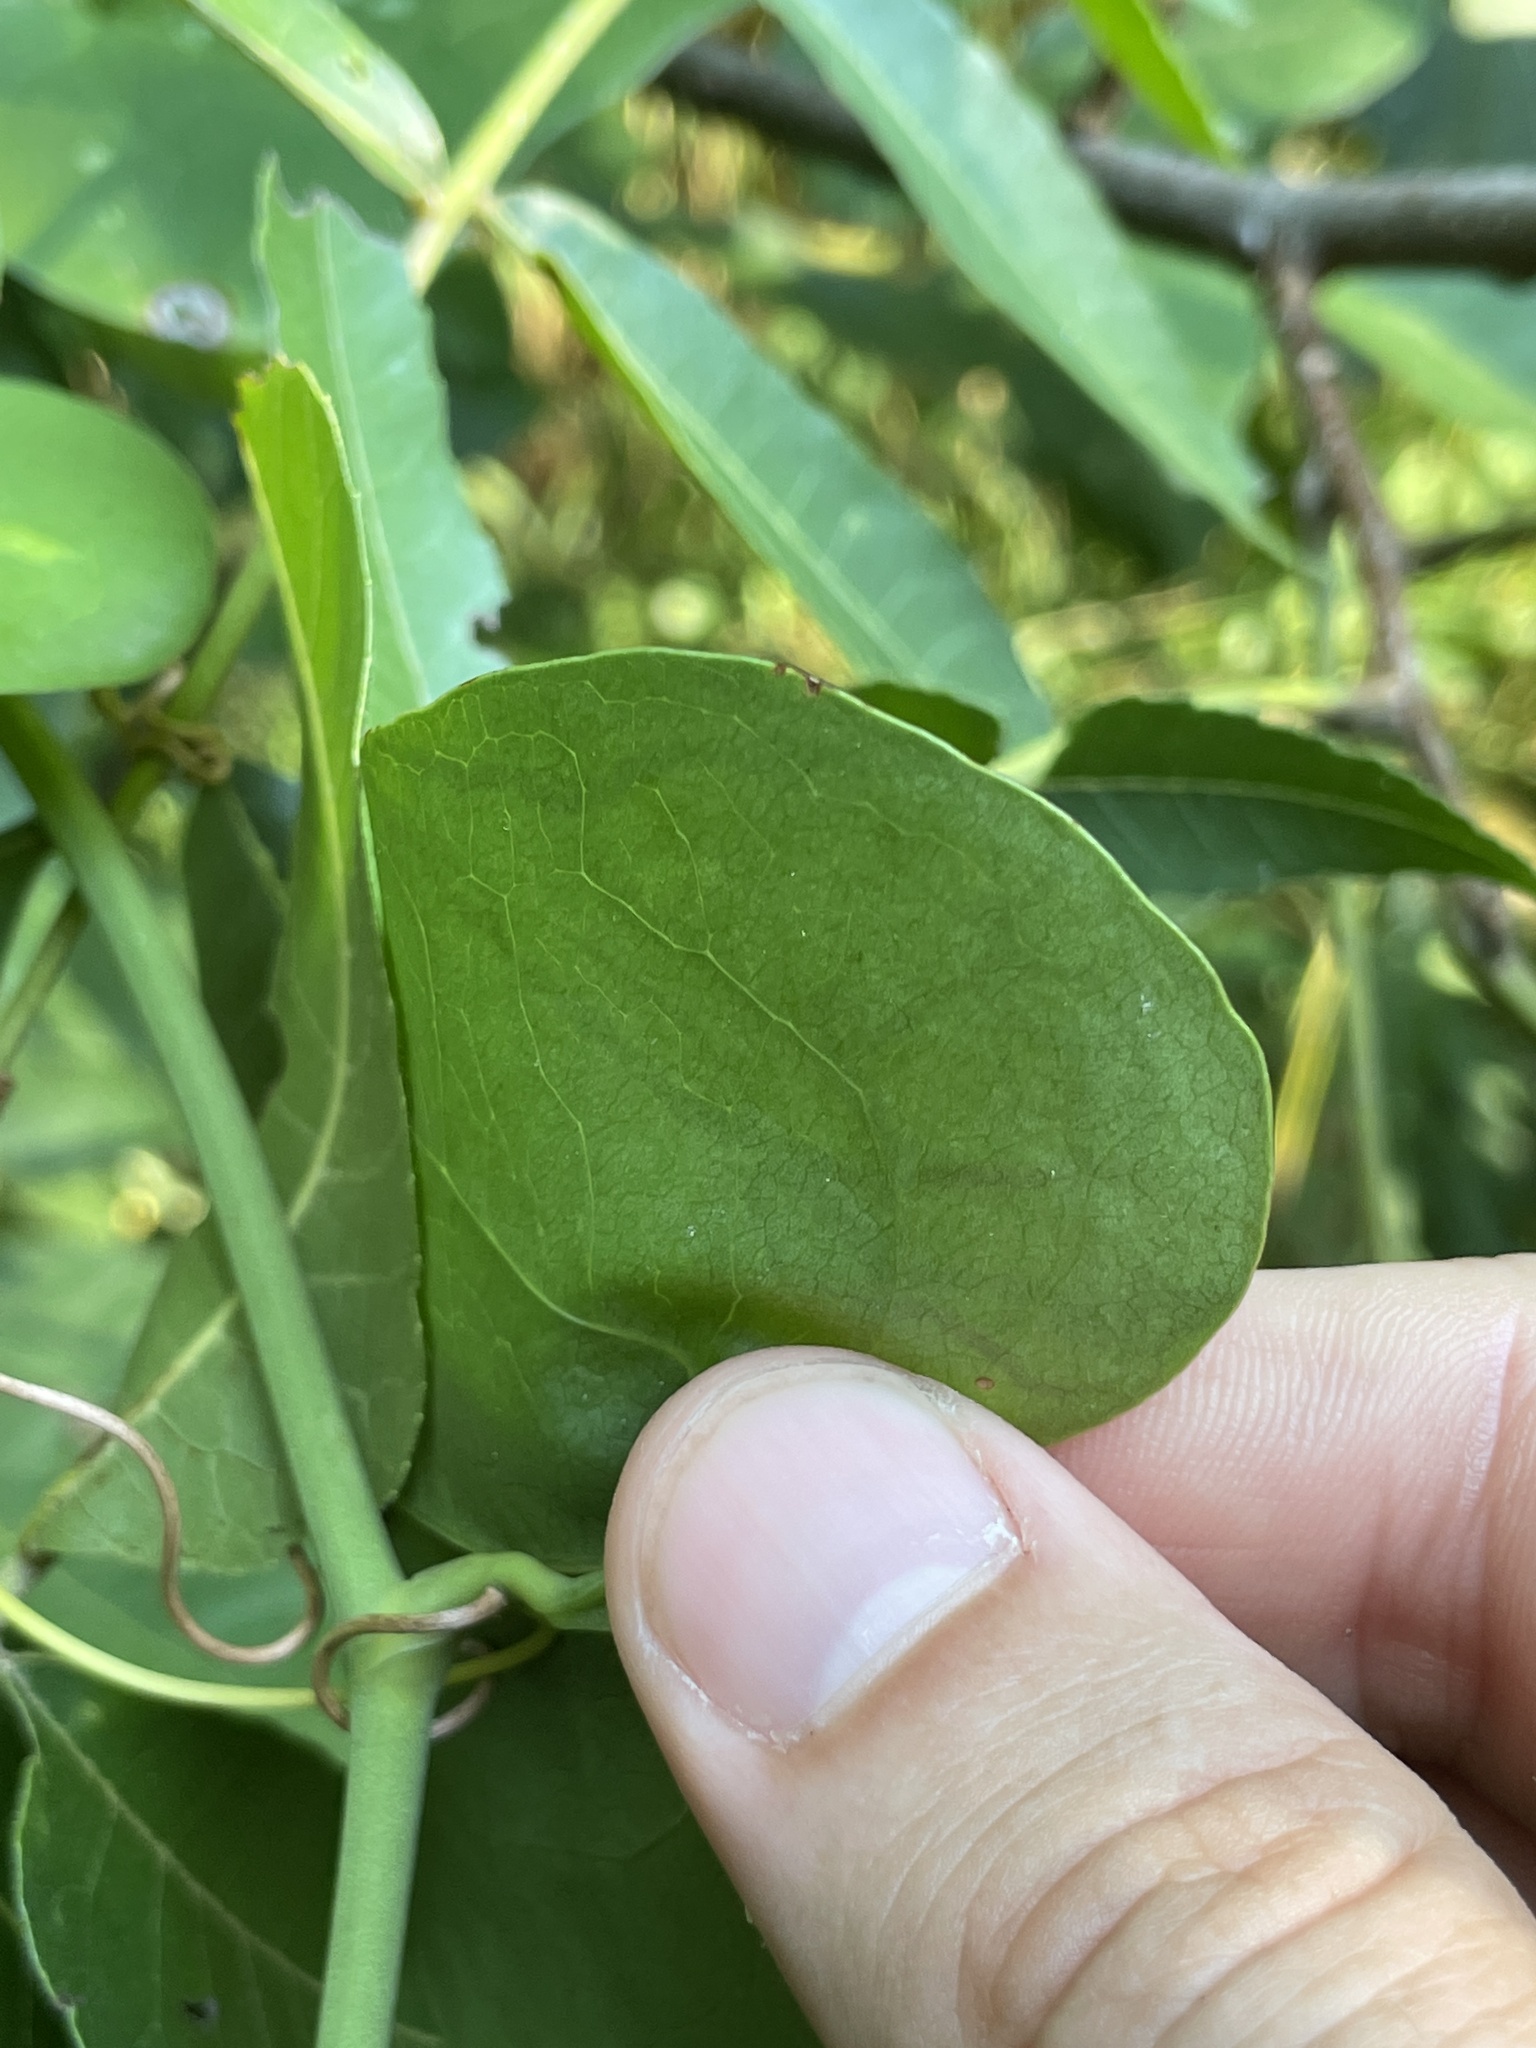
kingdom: Animalia
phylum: Arthropoda
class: Insecta
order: Lepidoptera
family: Gracillariidae
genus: Marmara
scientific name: Marmara smilacisella
